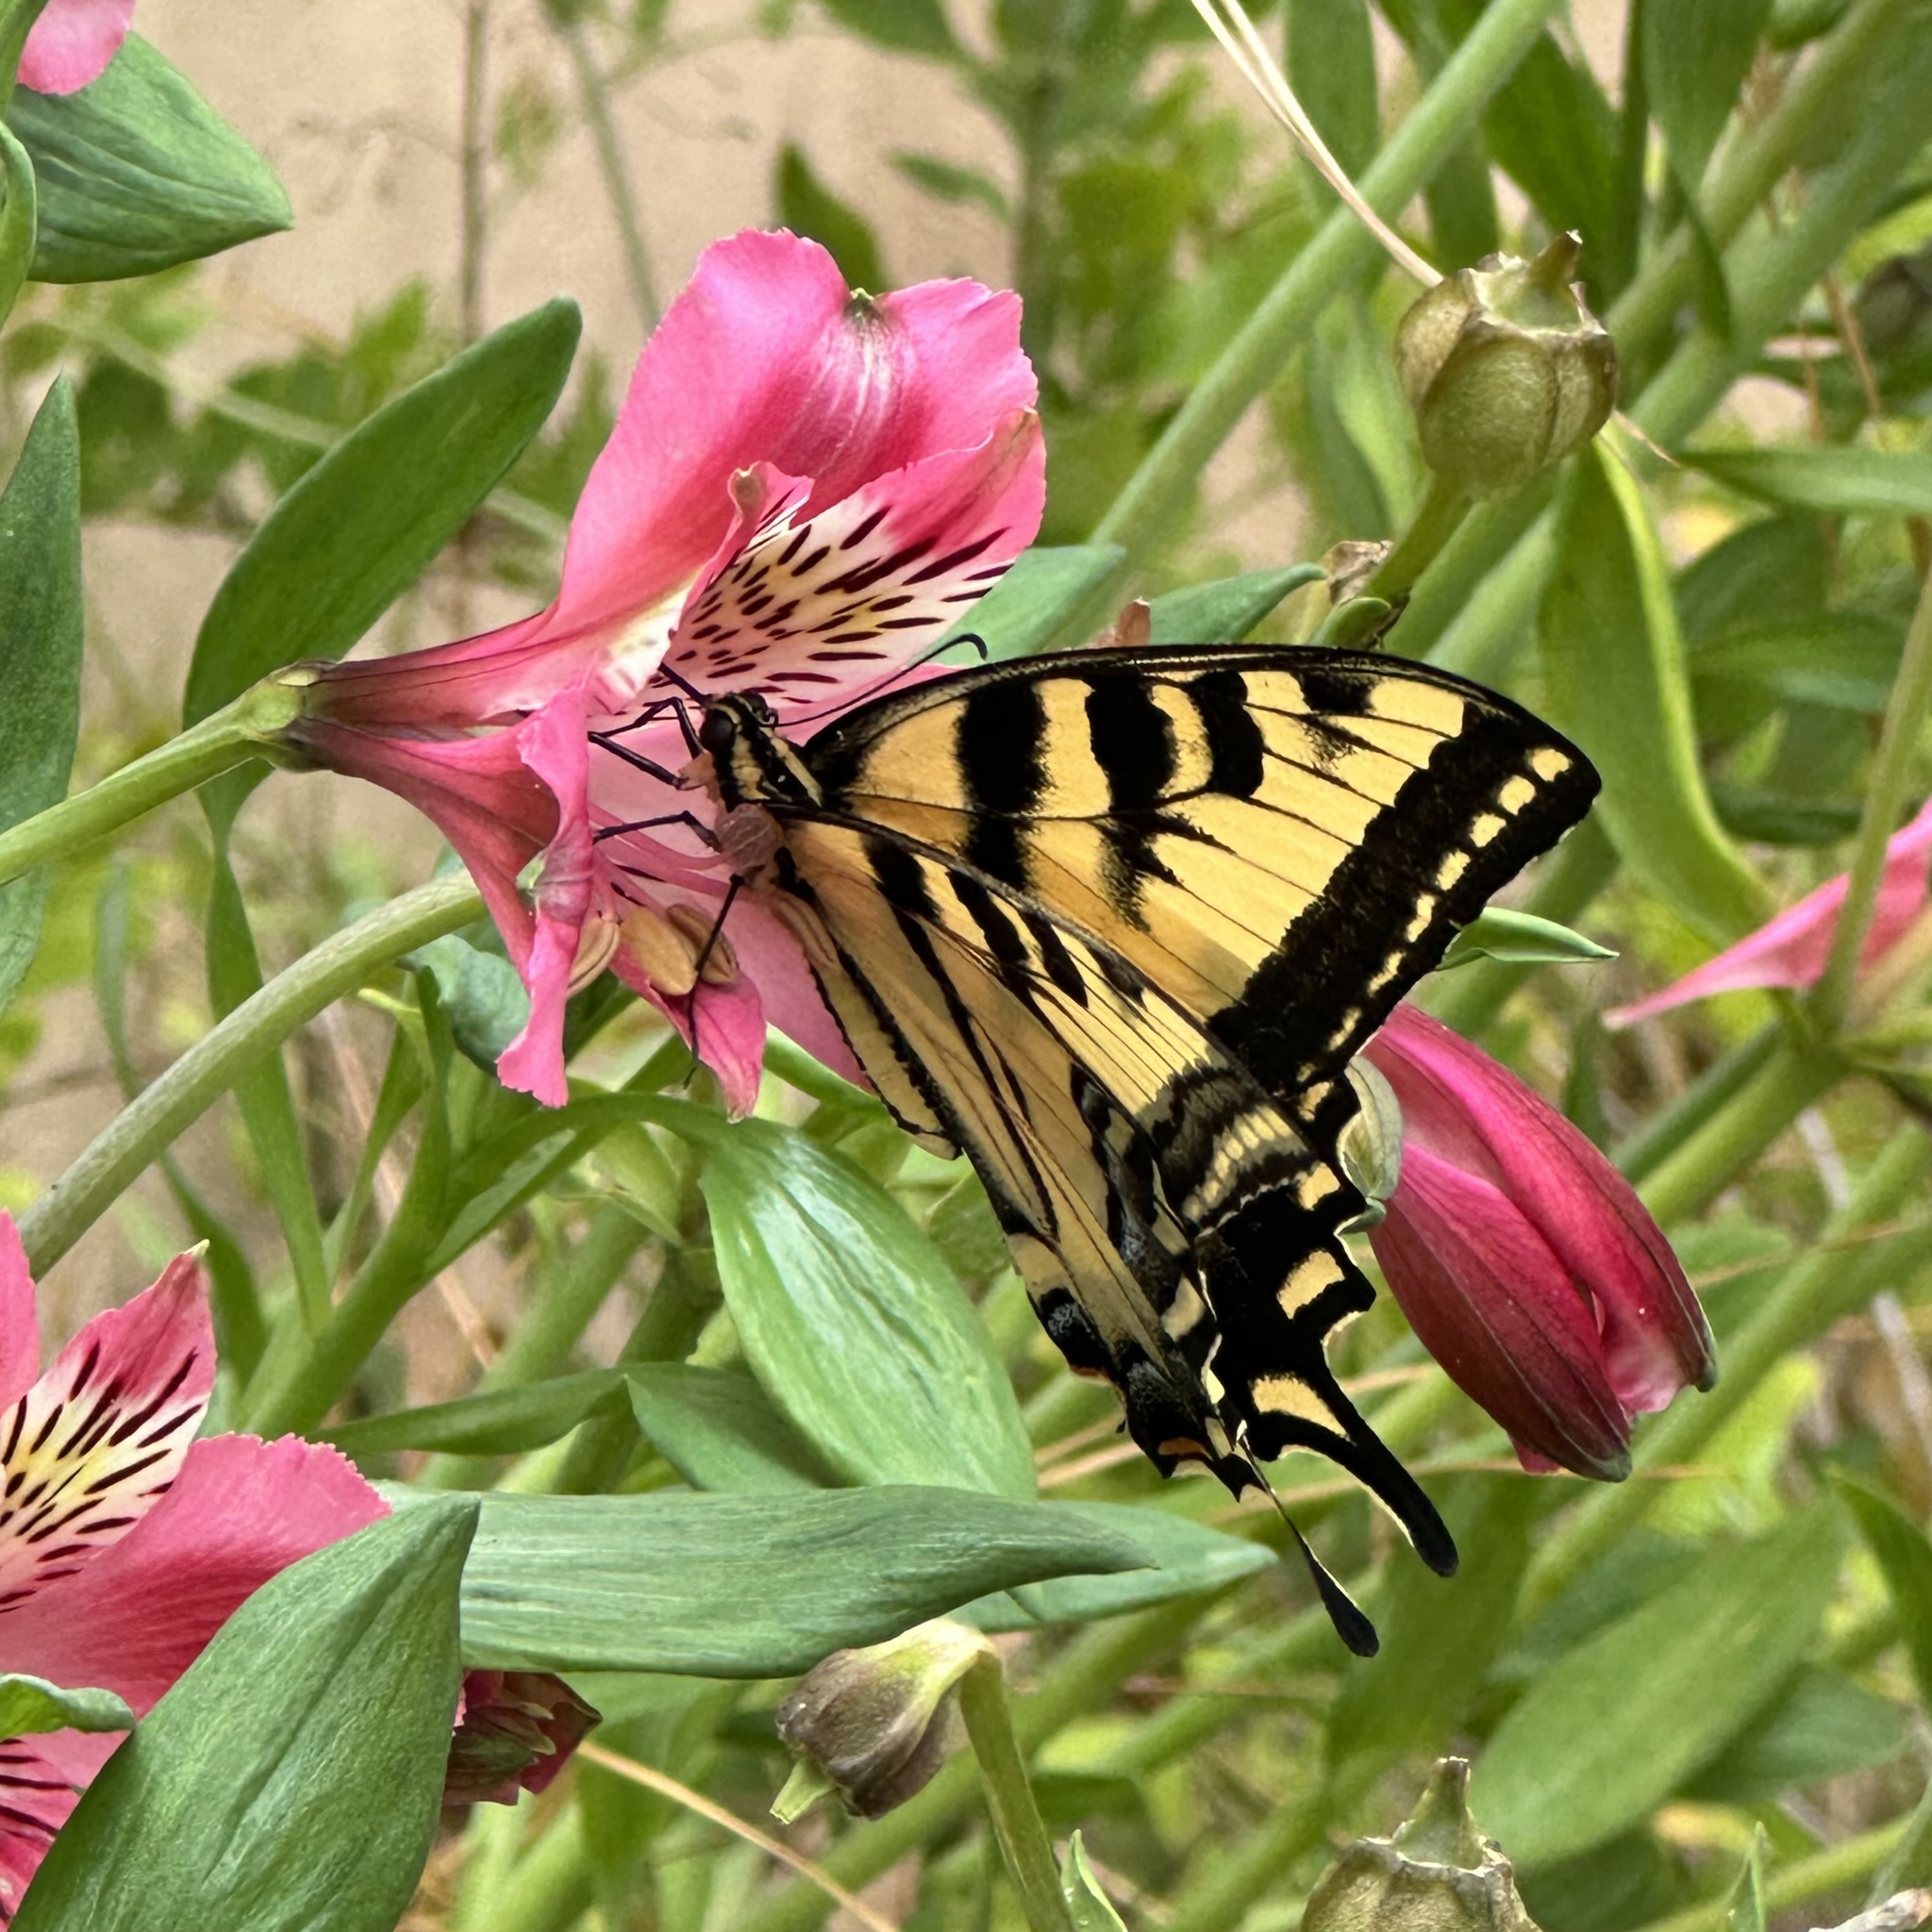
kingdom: Animalia
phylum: Arthropoda
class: Insecta
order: Lepidoptera
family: Papilionidae
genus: Papilio
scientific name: Papilio rutulus
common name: Western tiger swallowtail
